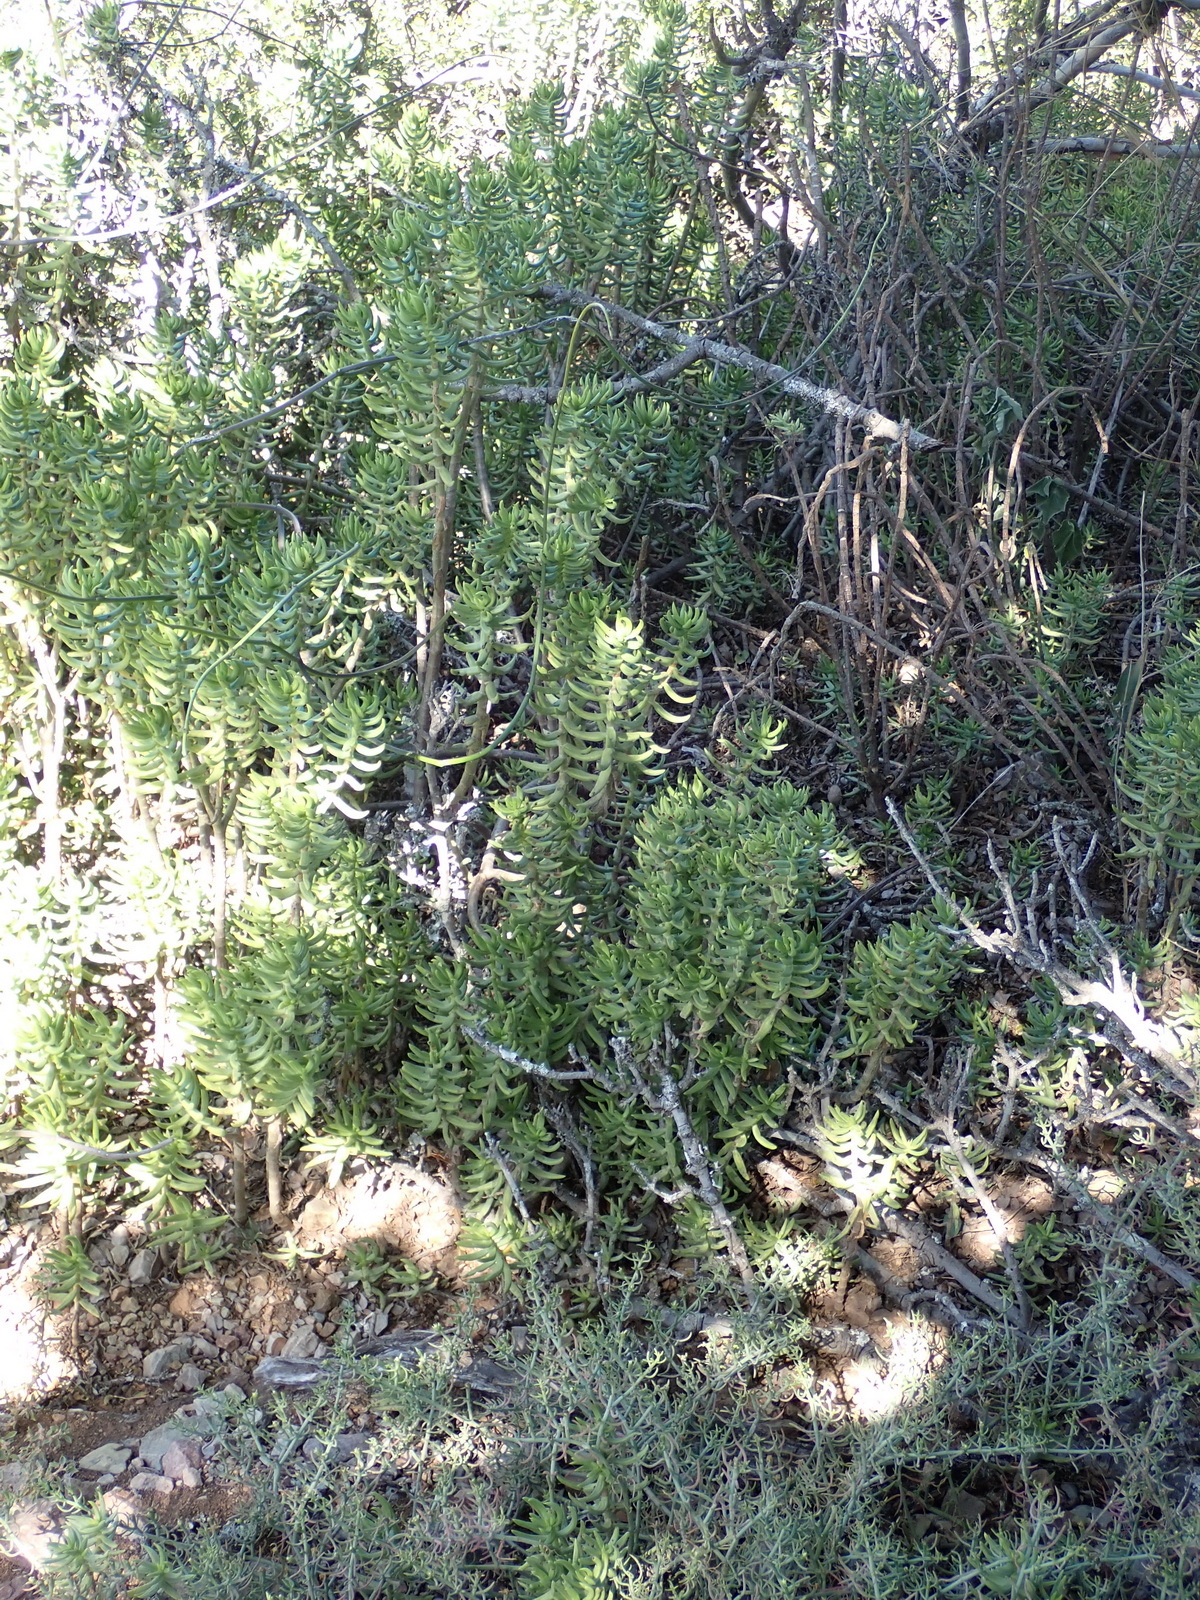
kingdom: Plantae
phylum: Tracheophyta
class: Magnoliopsida
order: Saxifragales
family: Crassulaceae
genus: Crassula
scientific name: Crassula tetragona
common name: Pygmyweed
